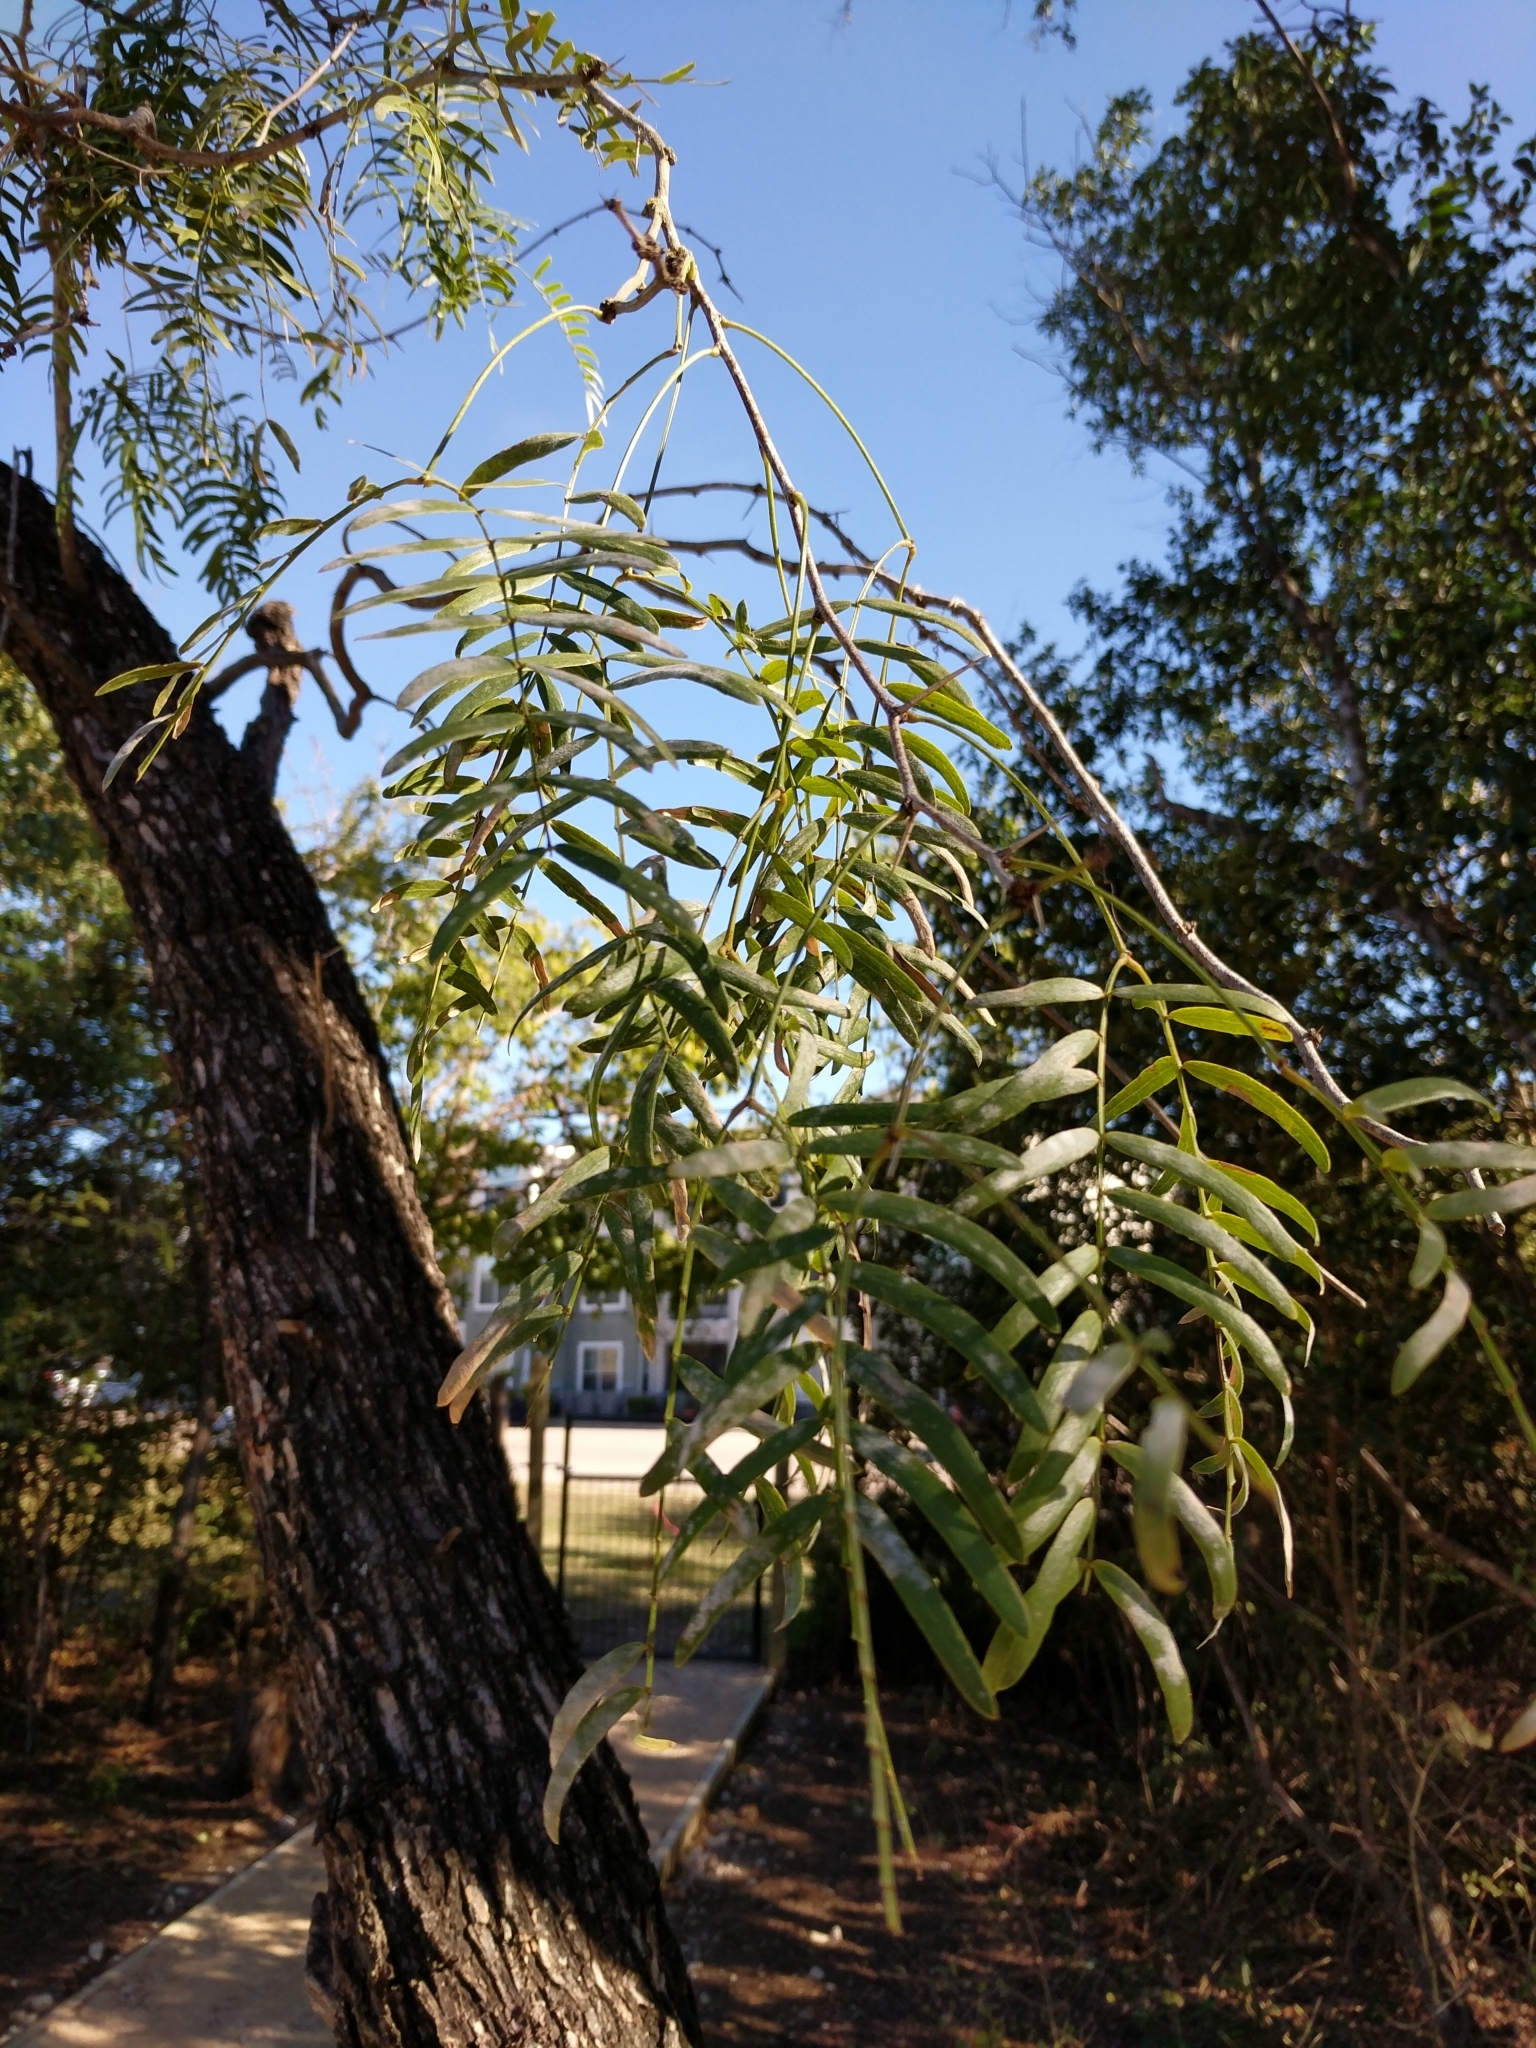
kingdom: Plantae
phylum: Tracheophyta
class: Magnoliopsida
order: Fabales
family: Fabaceae
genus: Prosopis
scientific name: Prosopis glandulosa
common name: Honey mesquite
